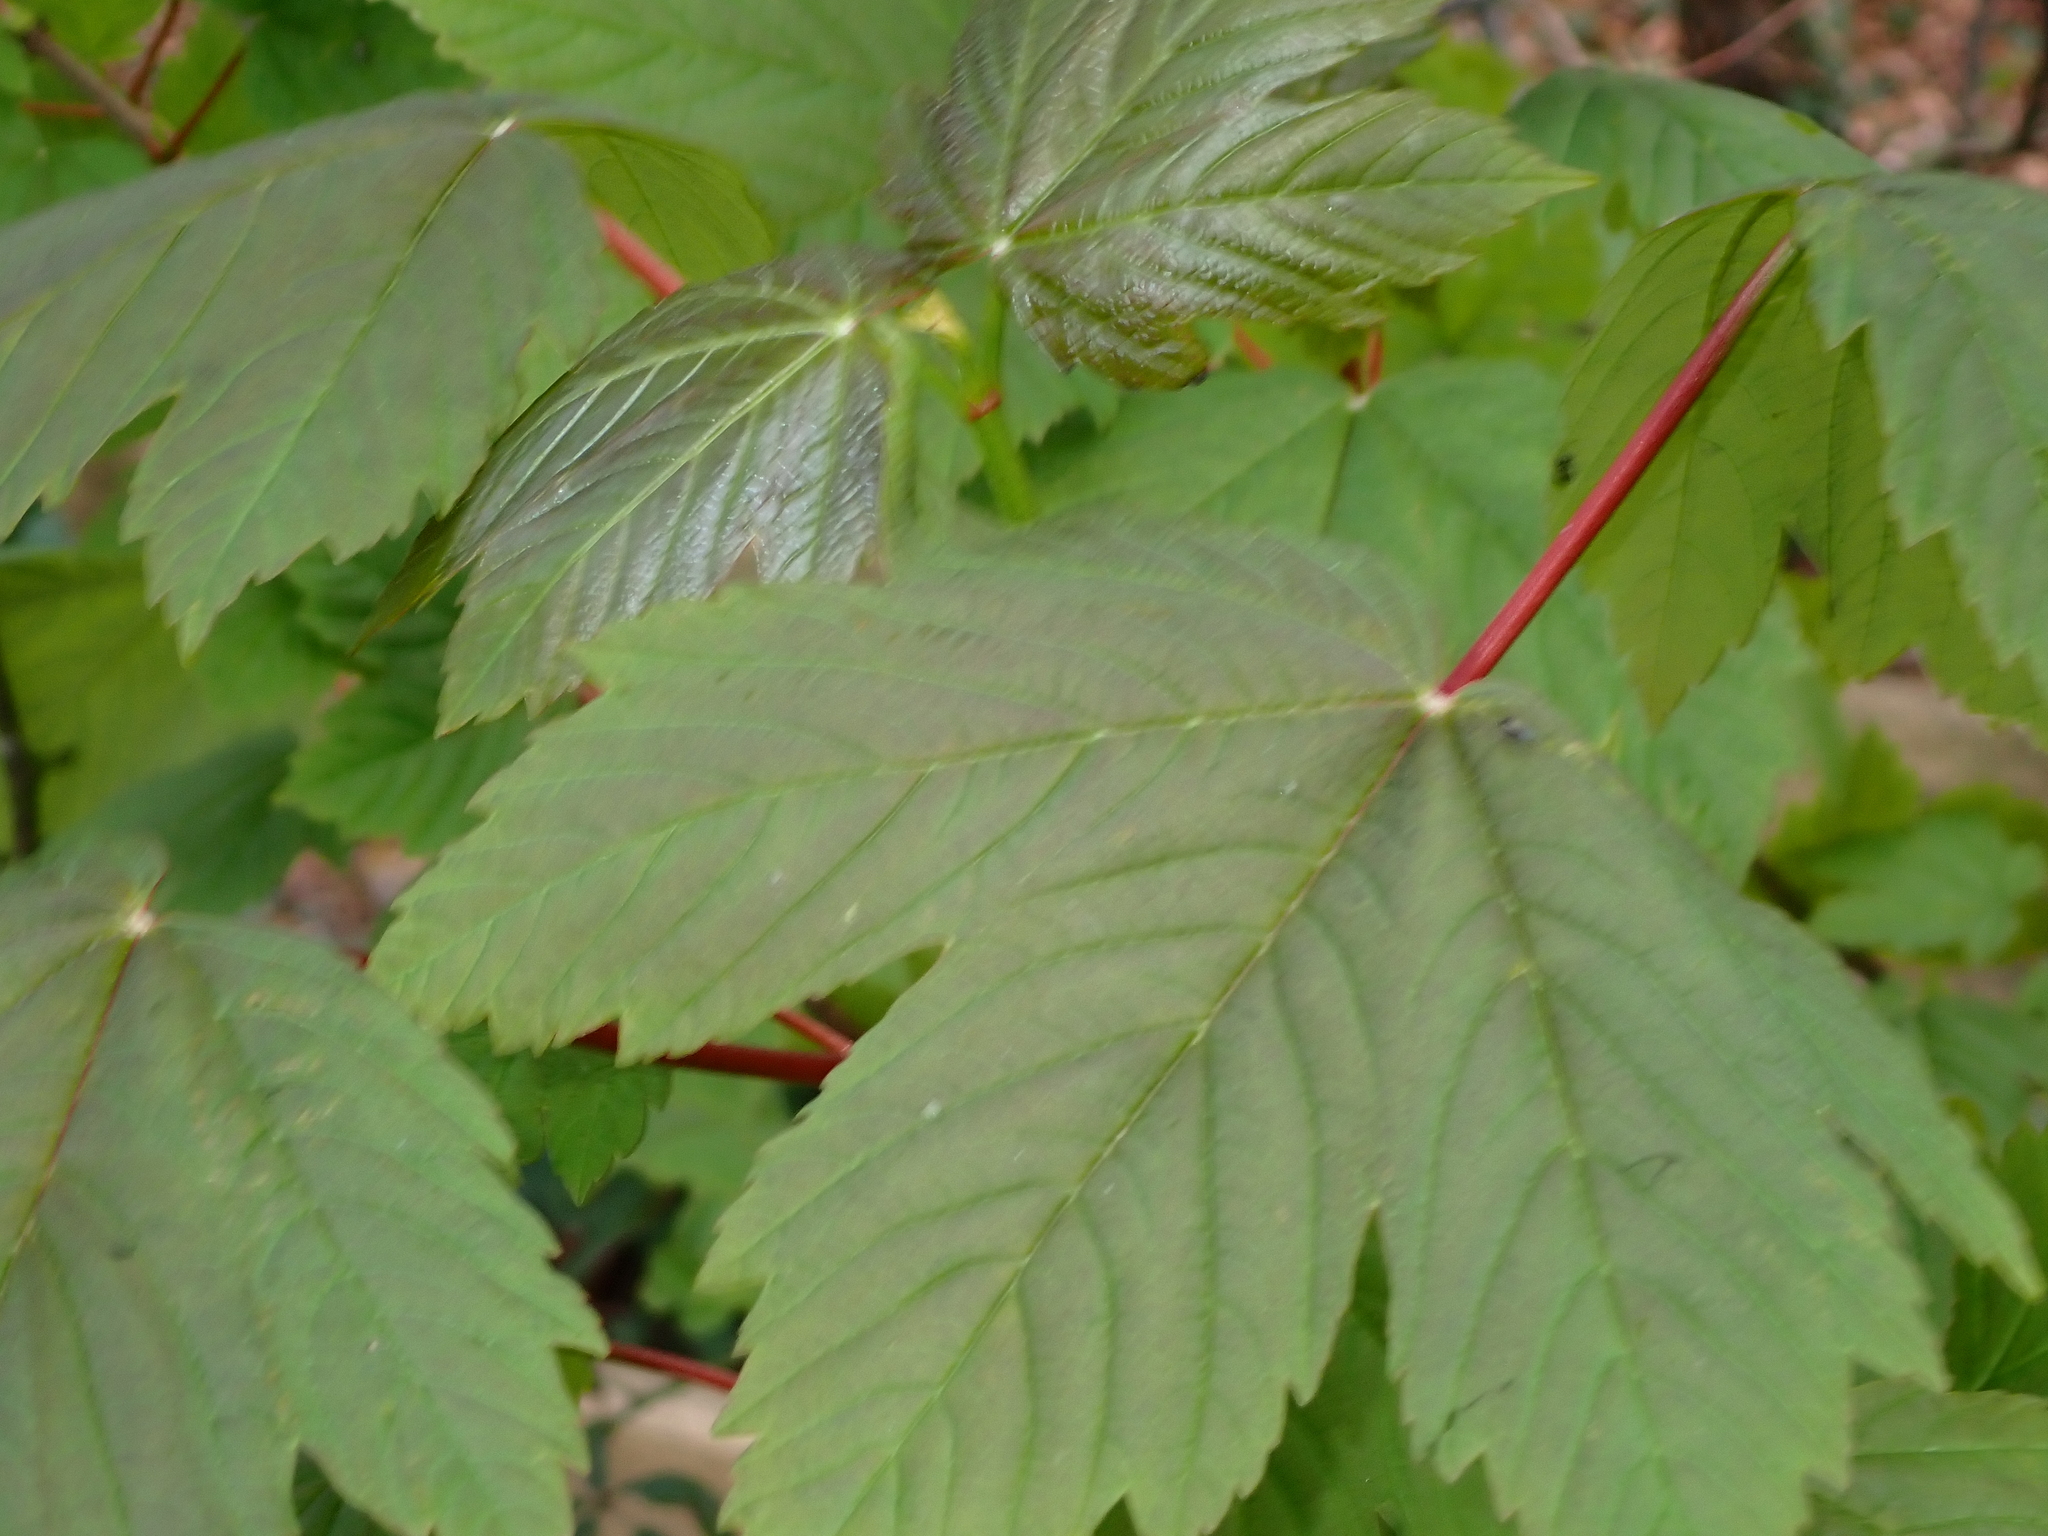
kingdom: Plantae
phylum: Tracheophyta
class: Magnoliopsida
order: Sapindales
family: Sapindaceae
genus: Acer
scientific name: Acer pseudoplatanus
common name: Sycamore
